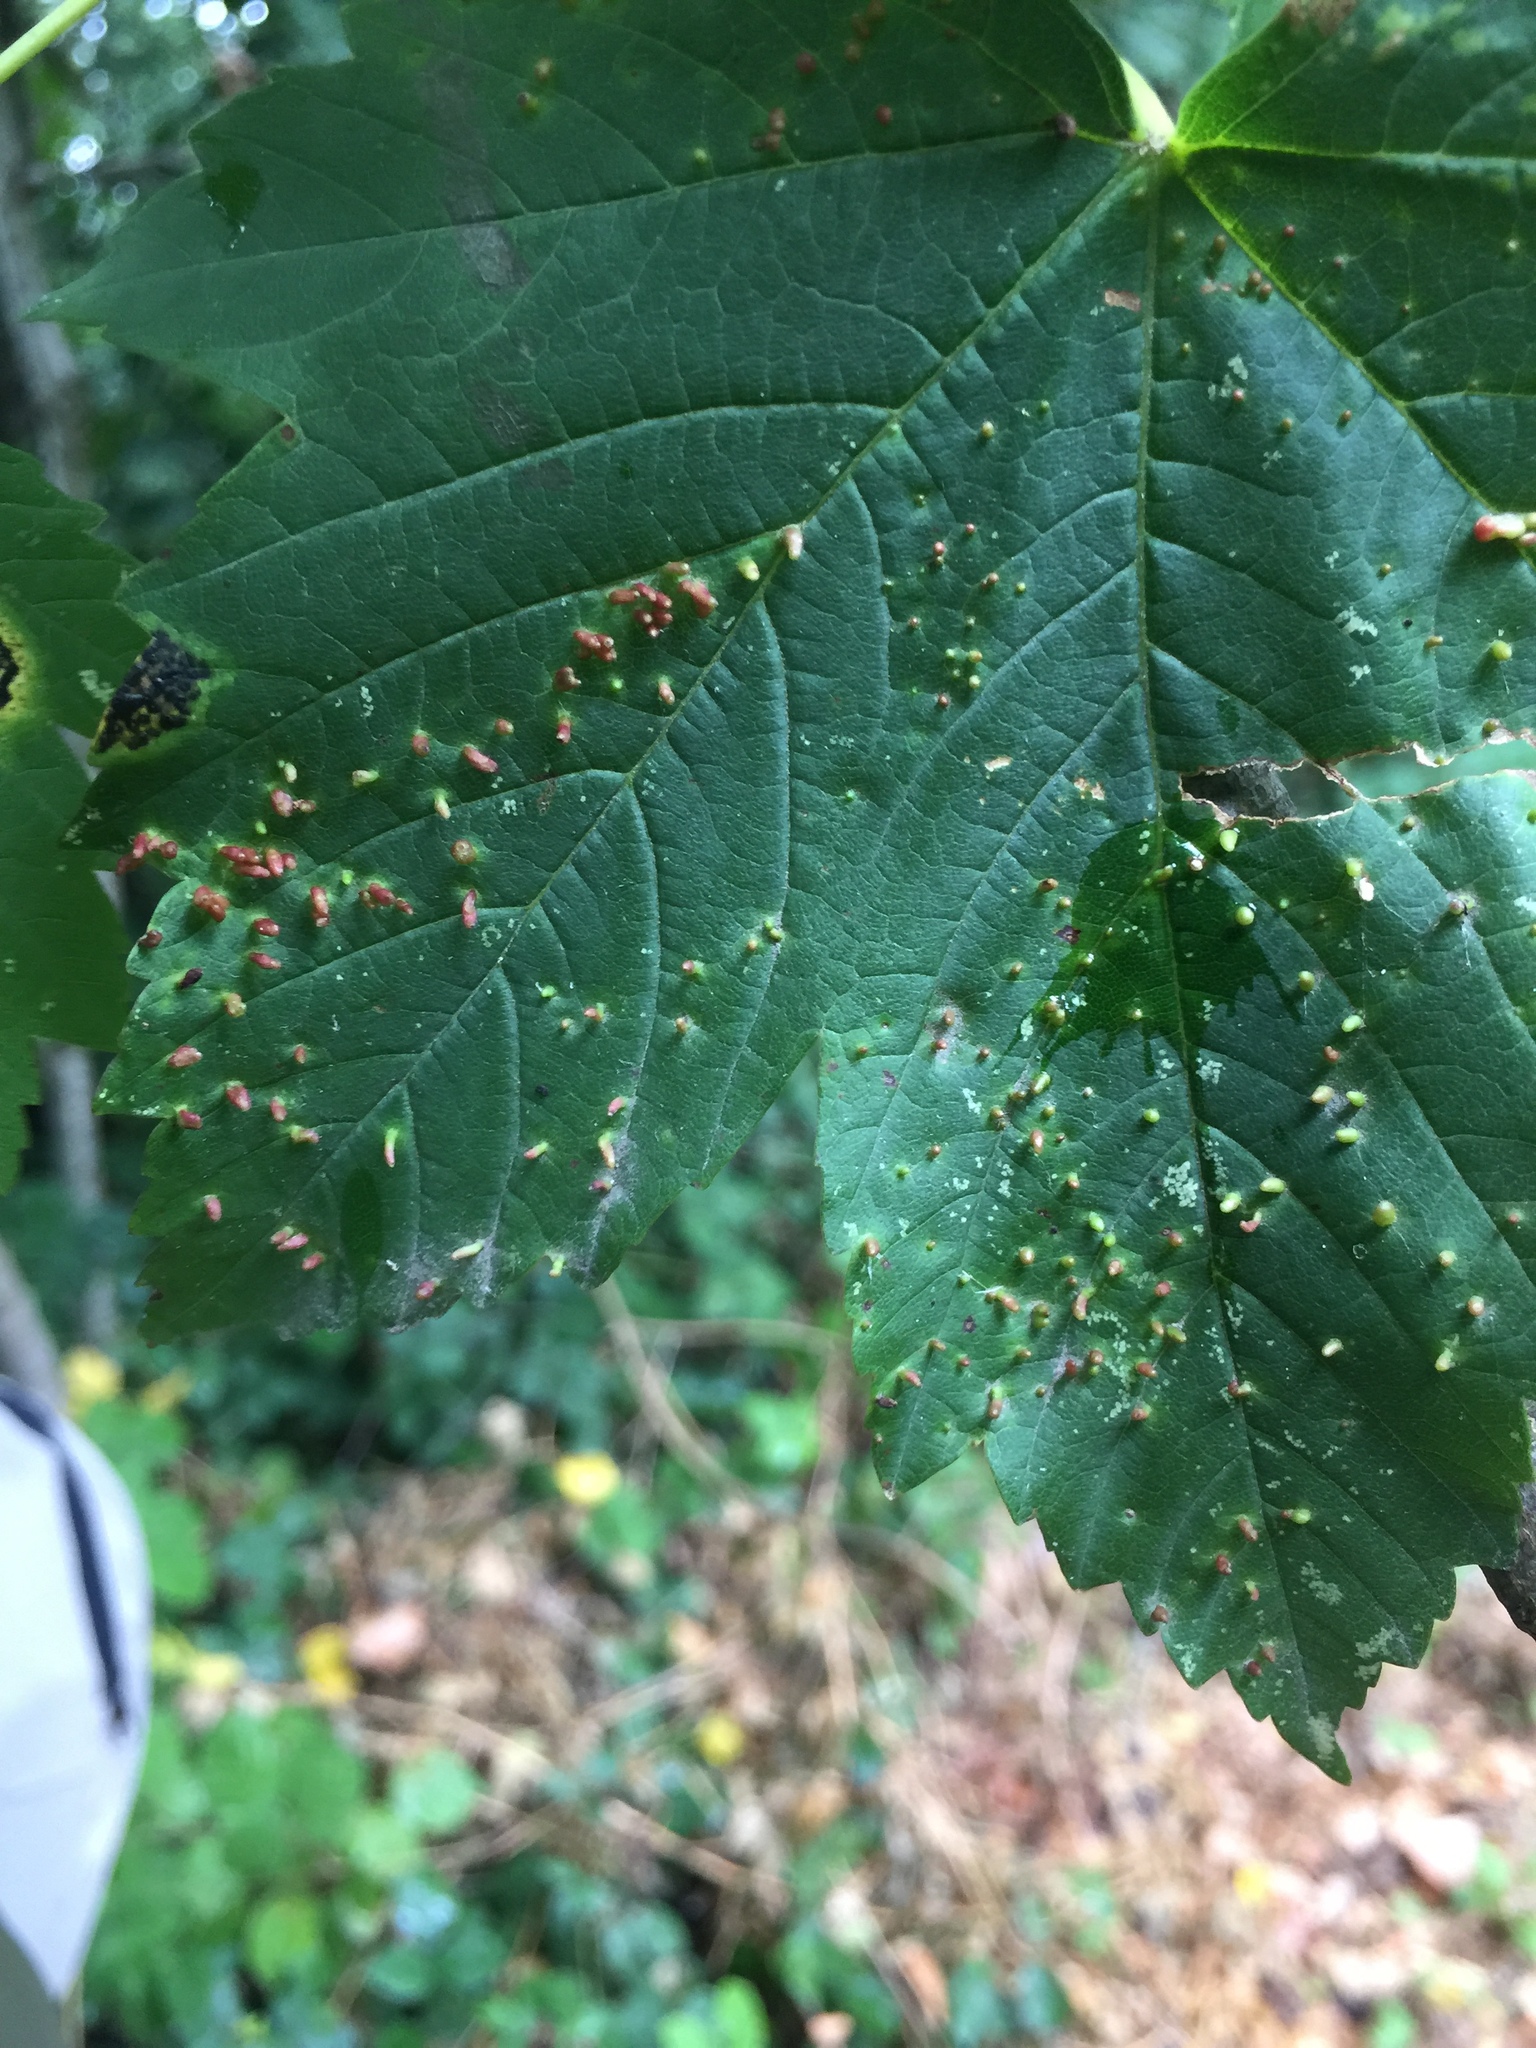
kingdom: Animalia
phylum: Arthropoda
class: Arachnida
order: Trombidiformes
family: Eriophyidae
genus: Aceria
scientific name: Aceria cephaloneus
